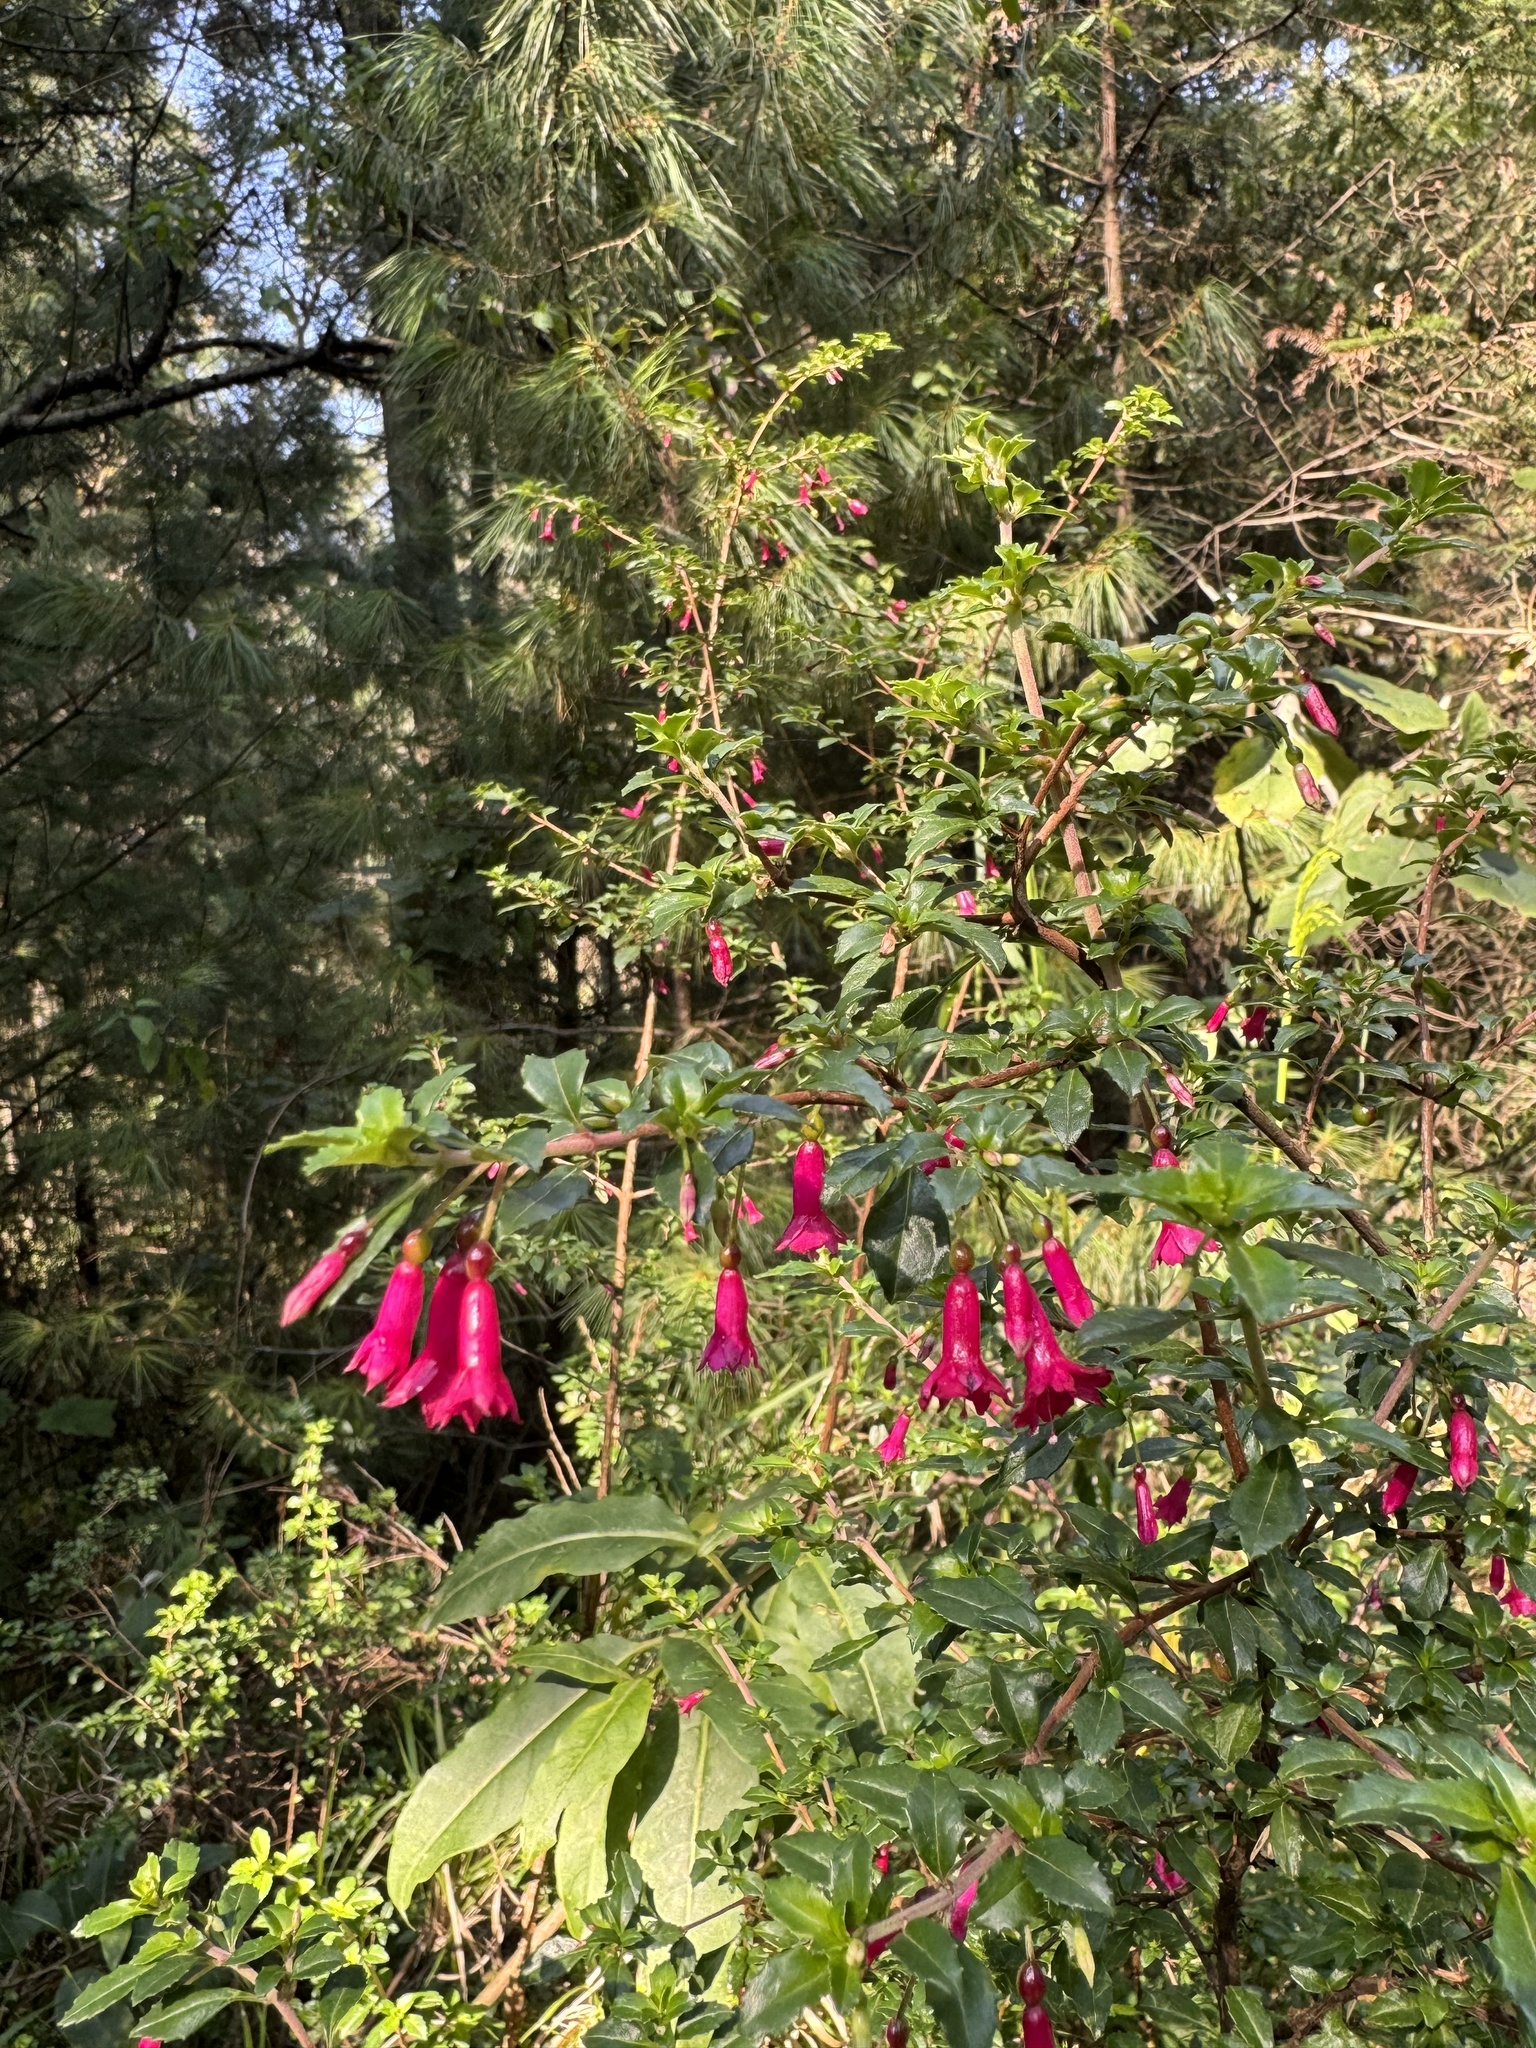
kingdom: Plantae
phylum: Tracheophyta
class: Magnoliopsida
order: Myrtales
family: Onagraceae
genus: Fuchsia
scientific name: Fuchsia microphylla
